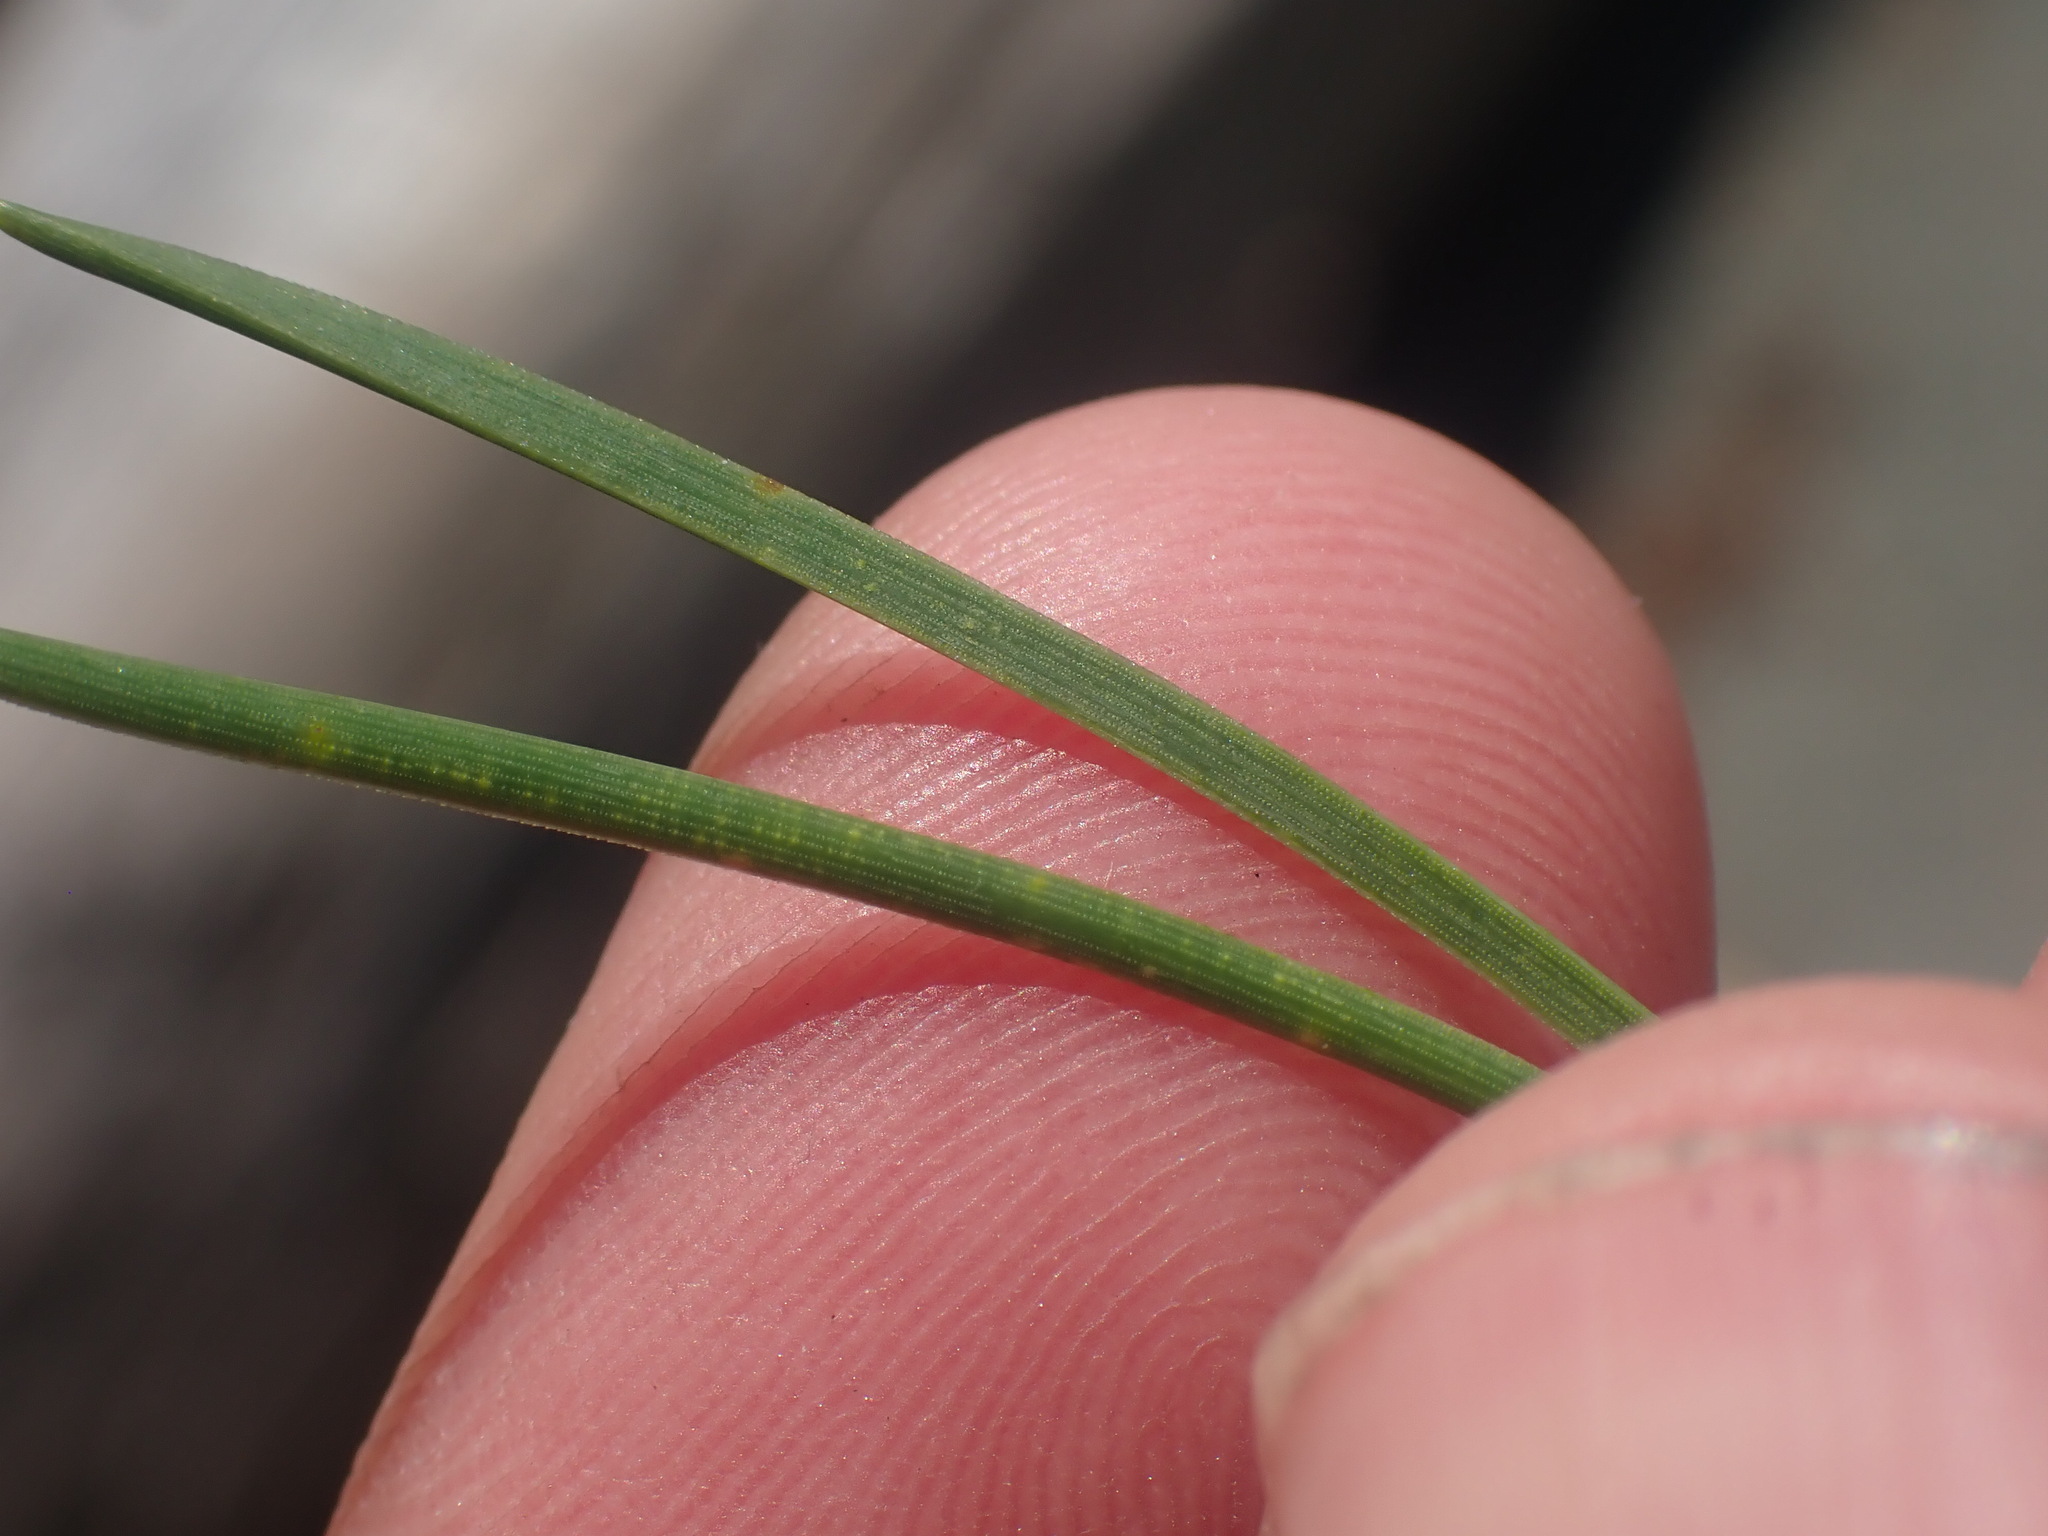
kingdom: Plantae
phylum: Tracheophyta
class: Pinopsida
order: Pinales
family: Pinaceae
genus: Pinus
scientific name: Pinus contorta
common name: Lodgepole pine
